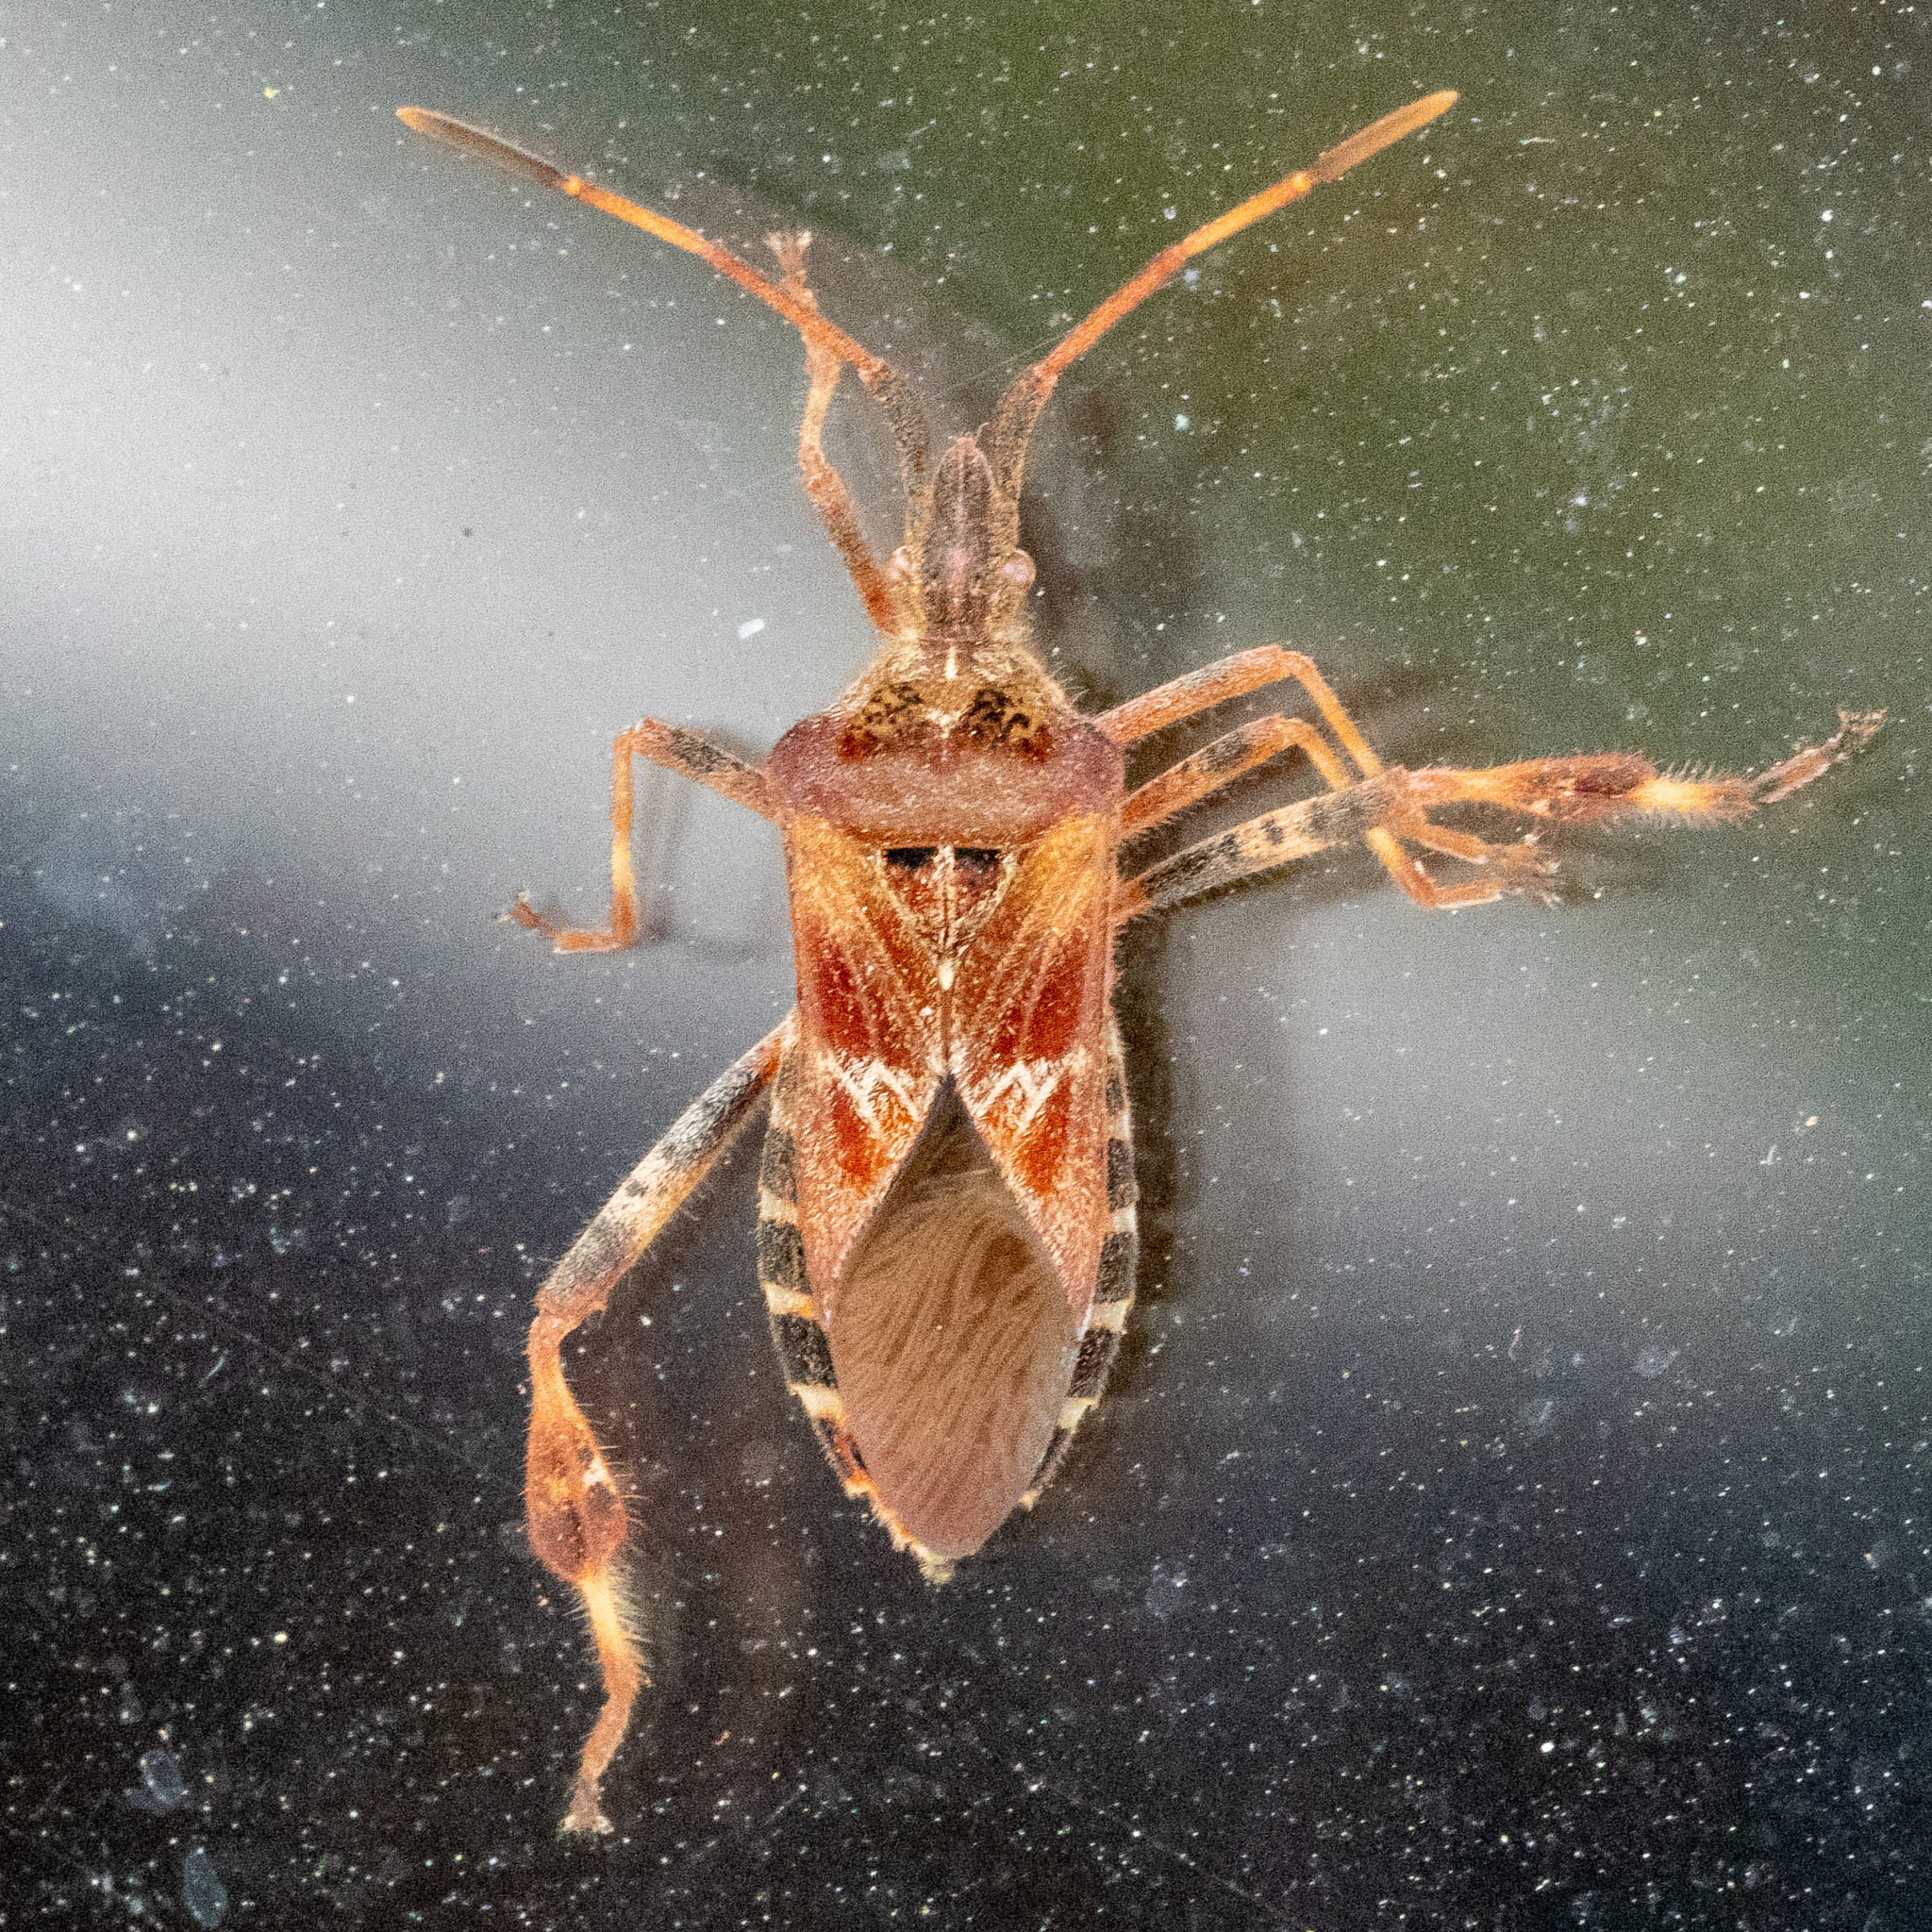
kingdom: Animalia
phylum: Arthropoda
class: Insecta
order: Hemiptera
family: Coreidae
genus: Leptoglossus
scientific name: Leptoglossus occidentalis
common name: Western conifer-seed bug
